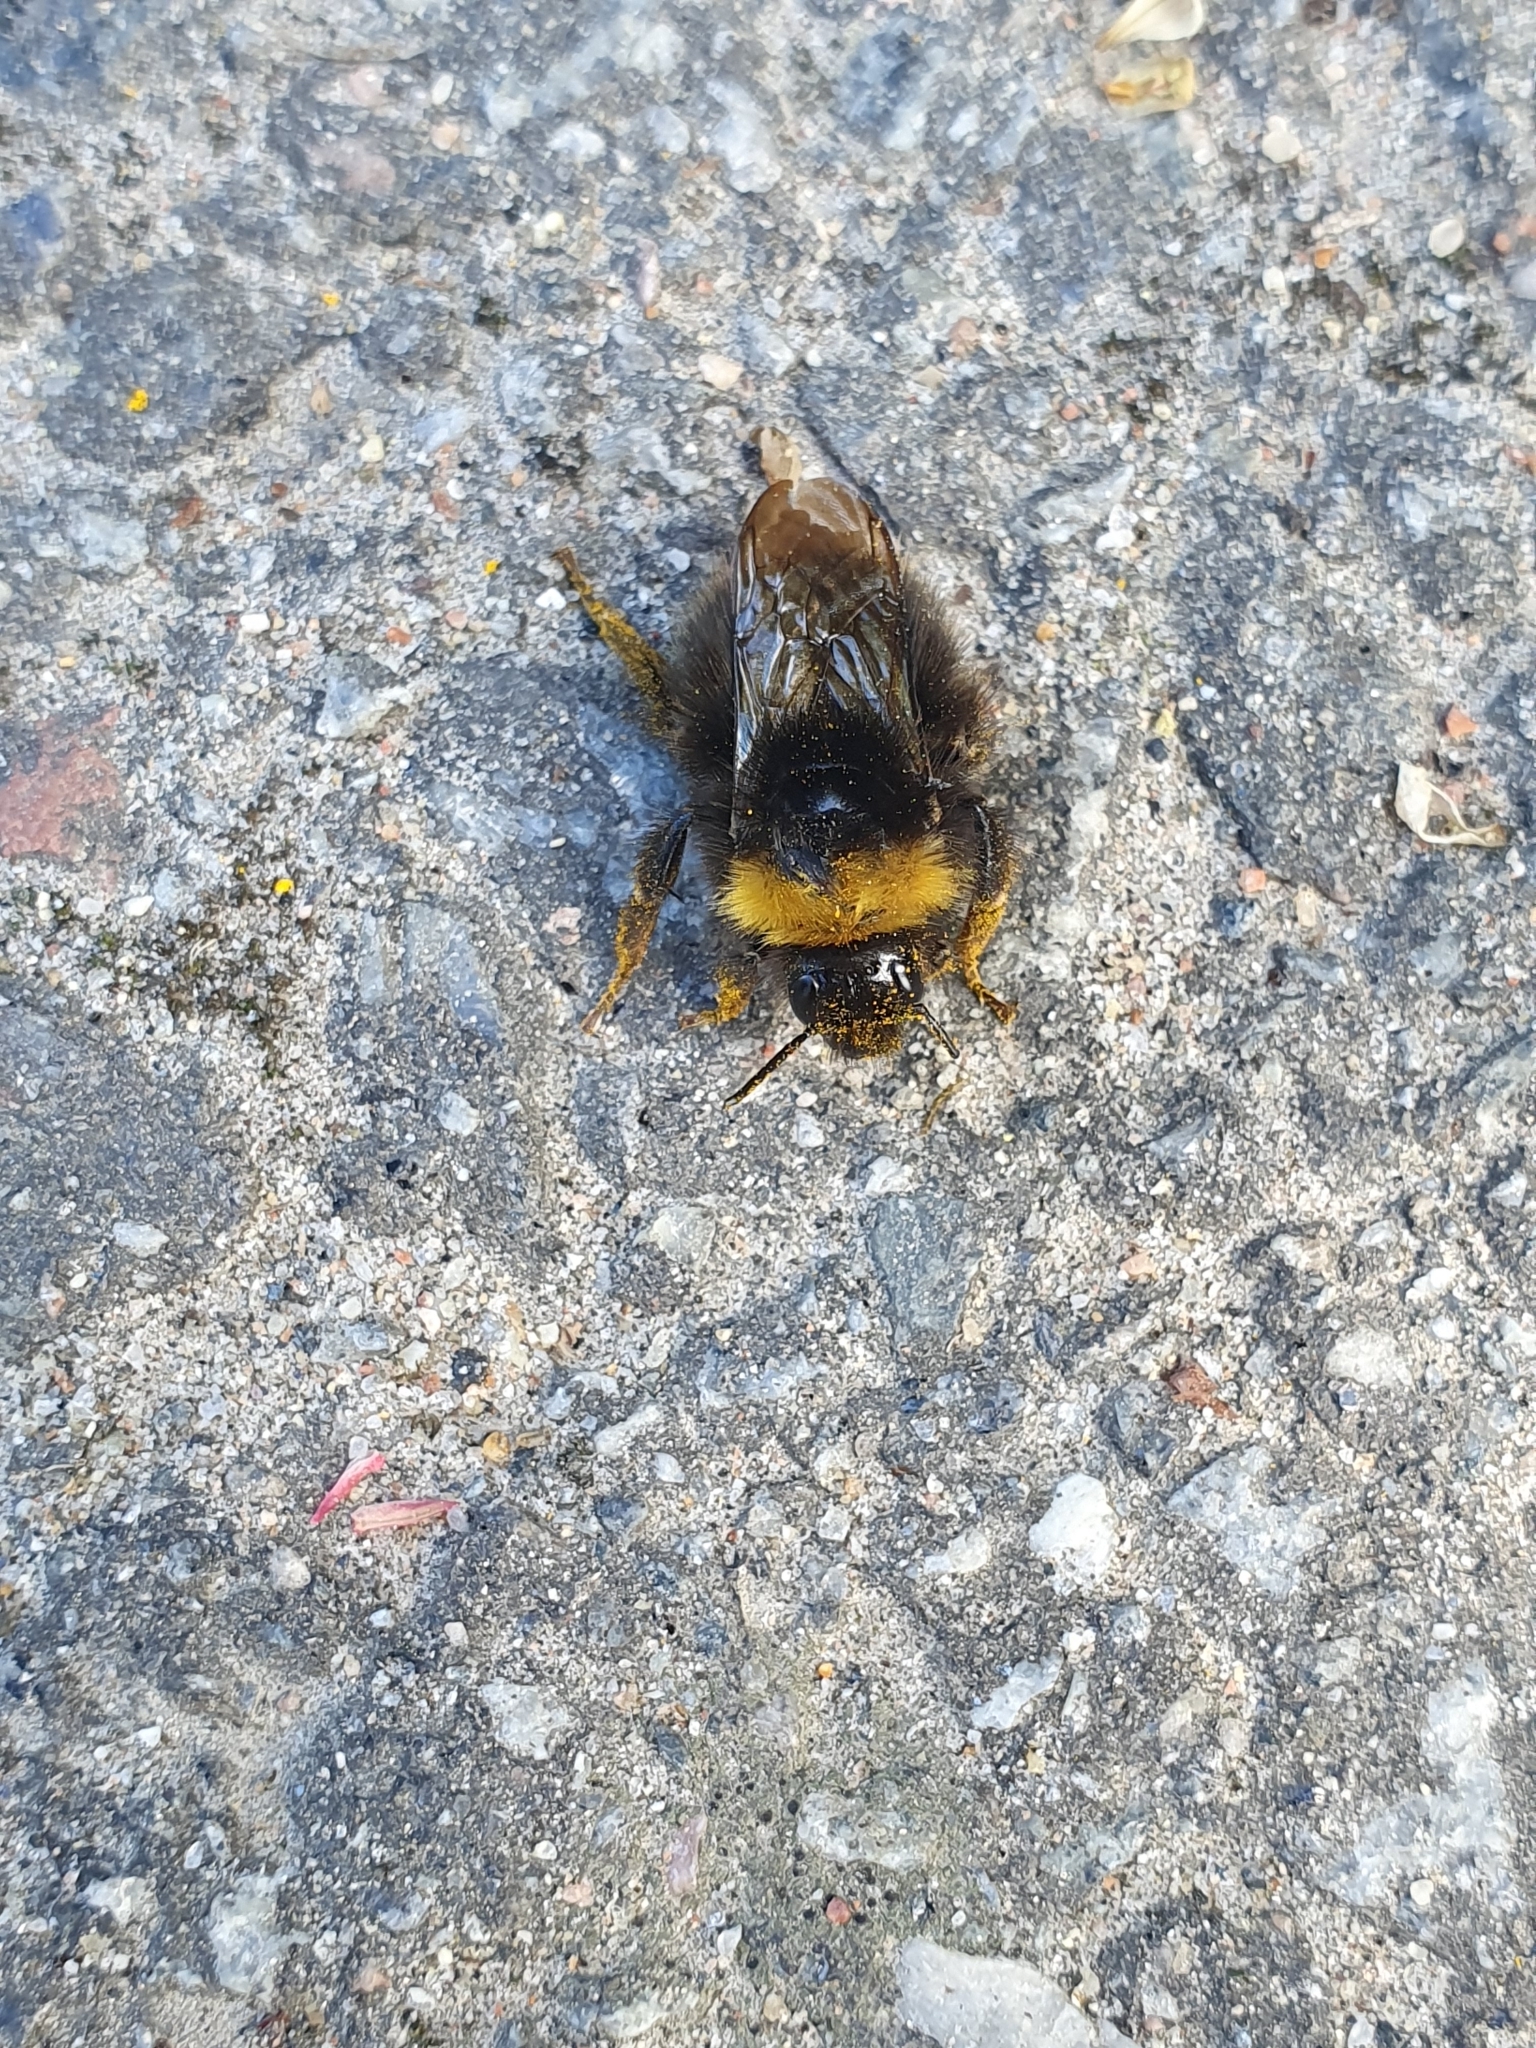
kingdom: Animalia
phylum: Arthropoda
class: Insecta
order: Hymenoptera
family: Apidae
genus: Bombus
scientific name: Bombus pratorum
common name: Early humble-bee
